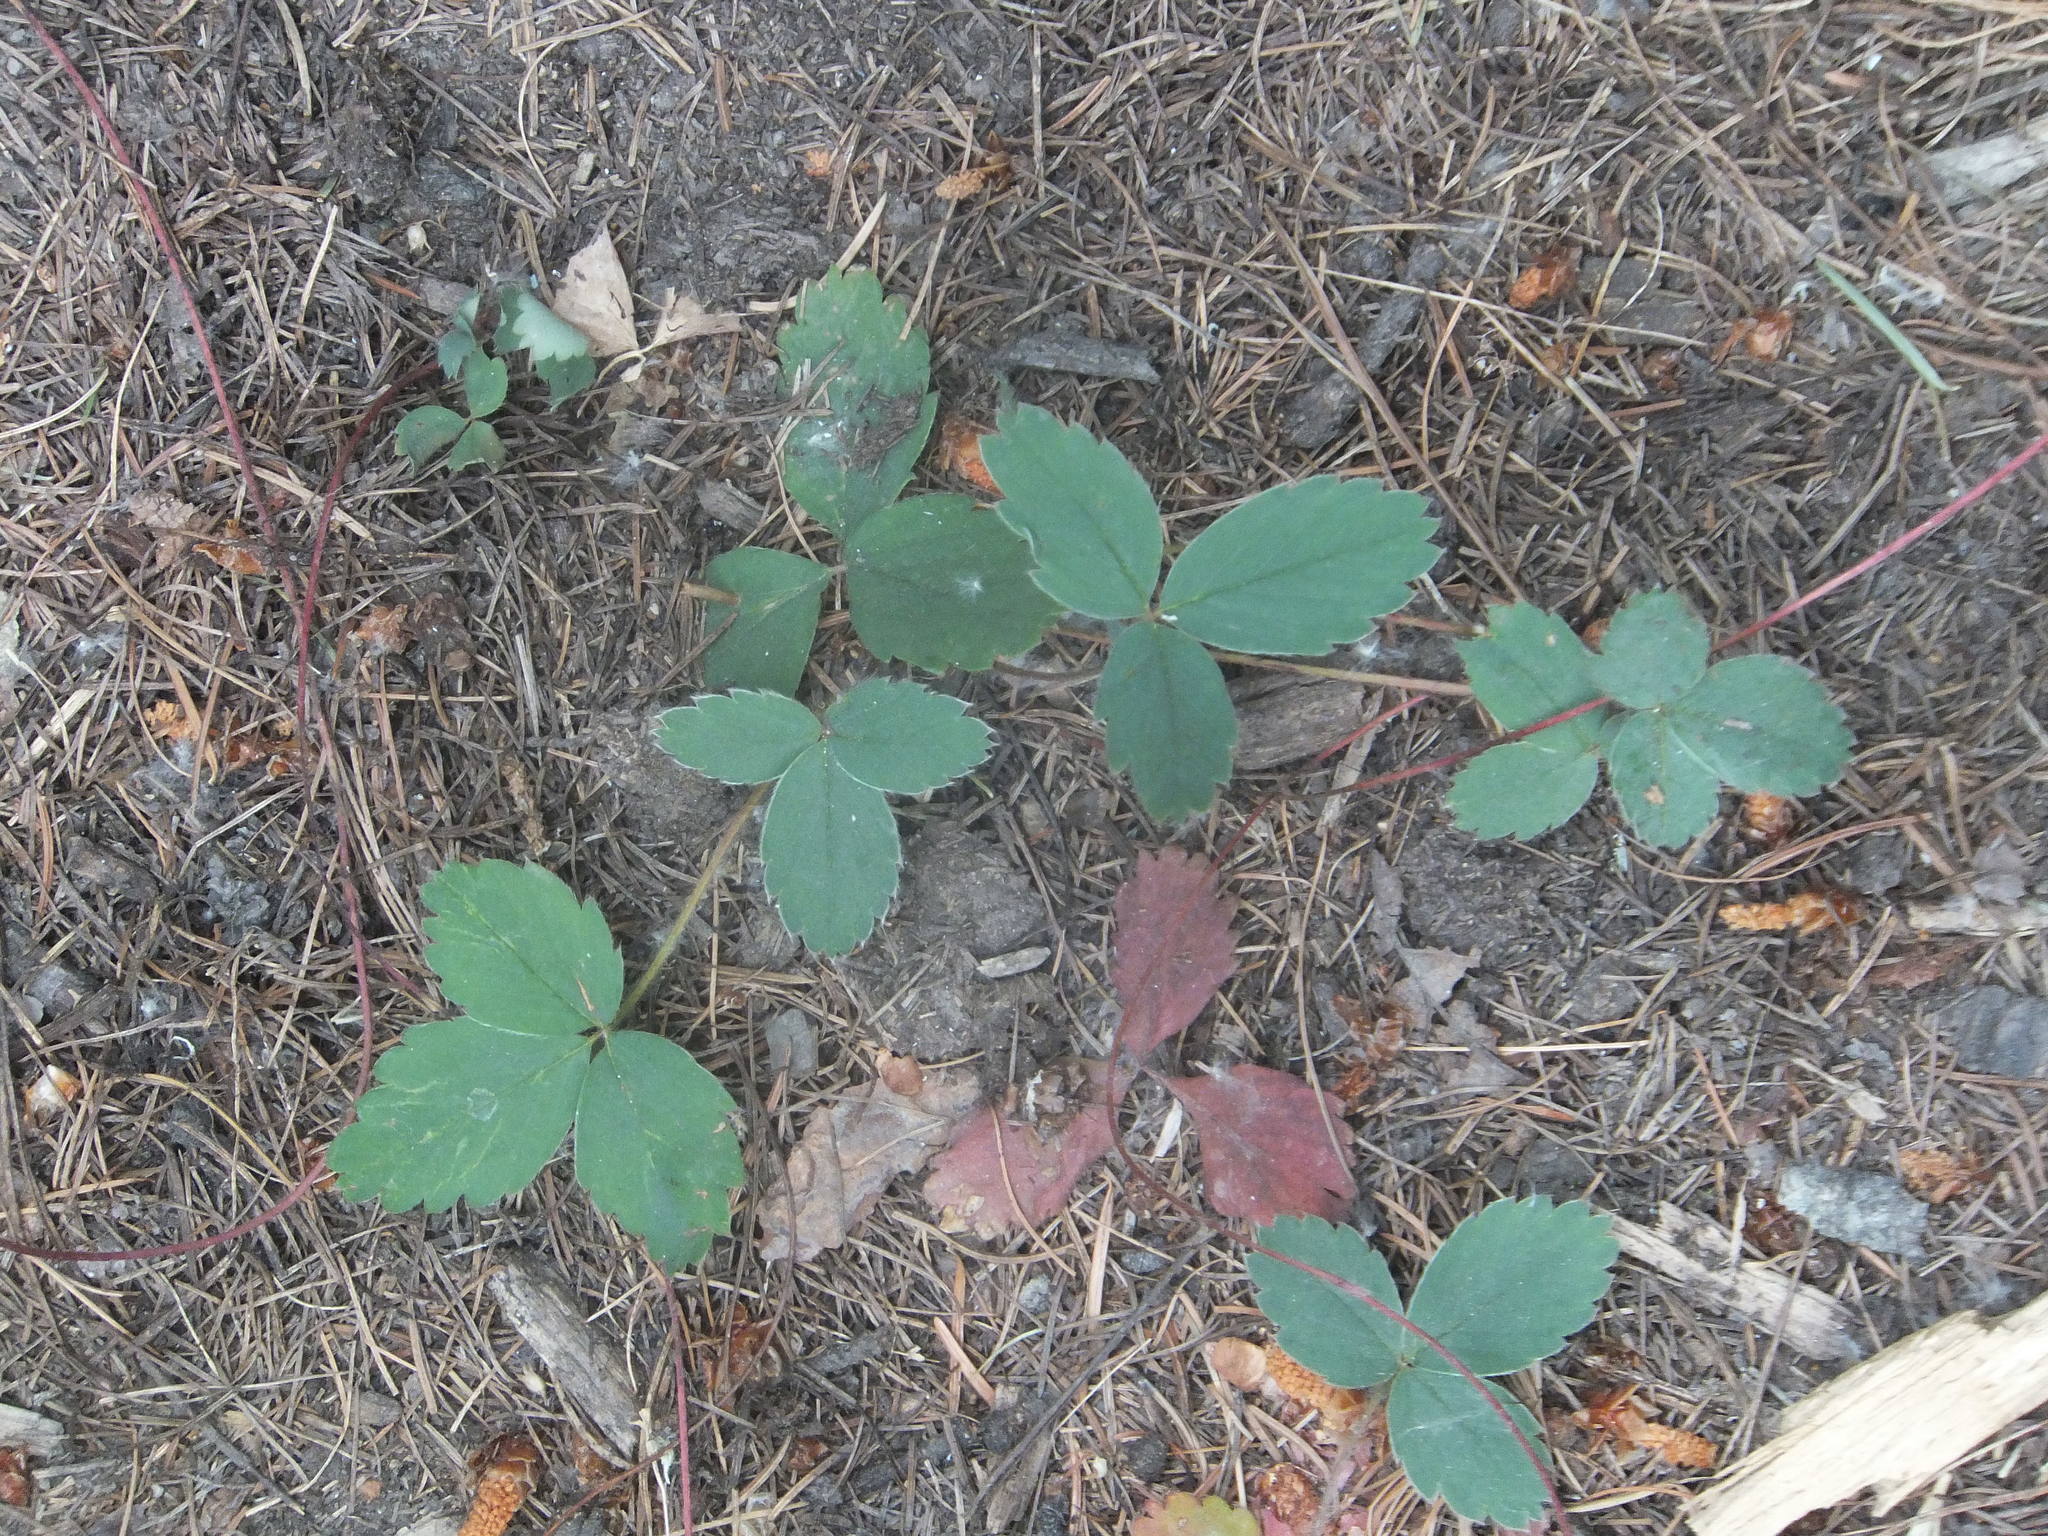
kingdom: Plantae
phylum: Tracheophyta
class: Magnoliopsida
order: Rosales
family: Rosaceae
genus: Fragaria
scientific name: Fragaria virginiana
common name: Thickleaved wild strawberry
